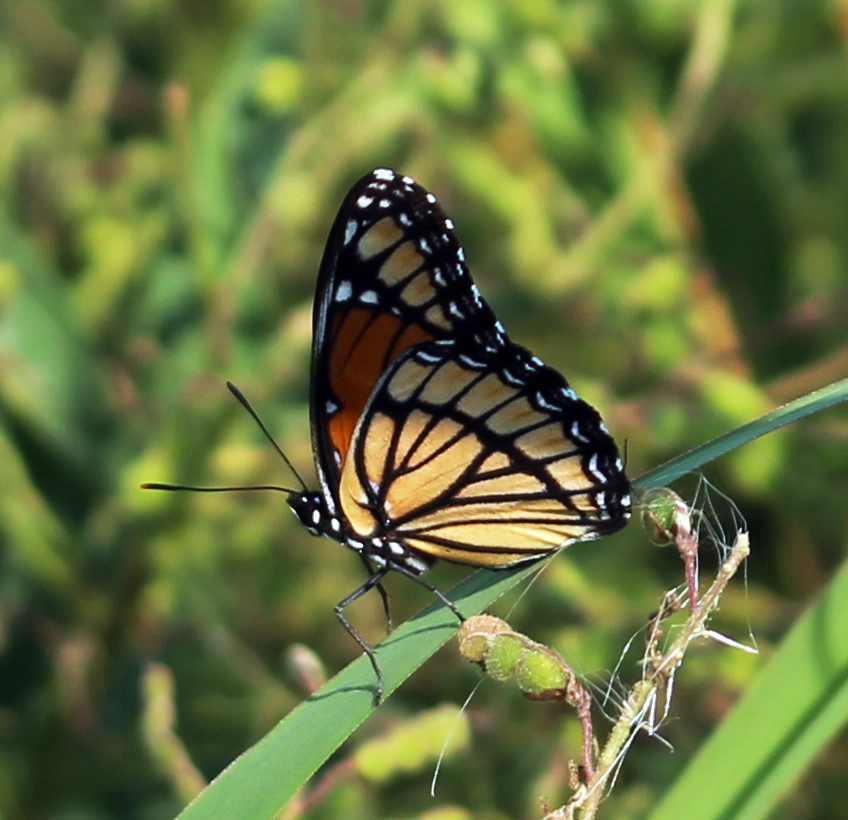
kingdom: Animalia
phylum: Arthropoda
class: Insecta
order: Lepidoptera
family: Nymphalidae
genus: Limenitis
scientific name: Limenitis archippus
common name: Viceroy
